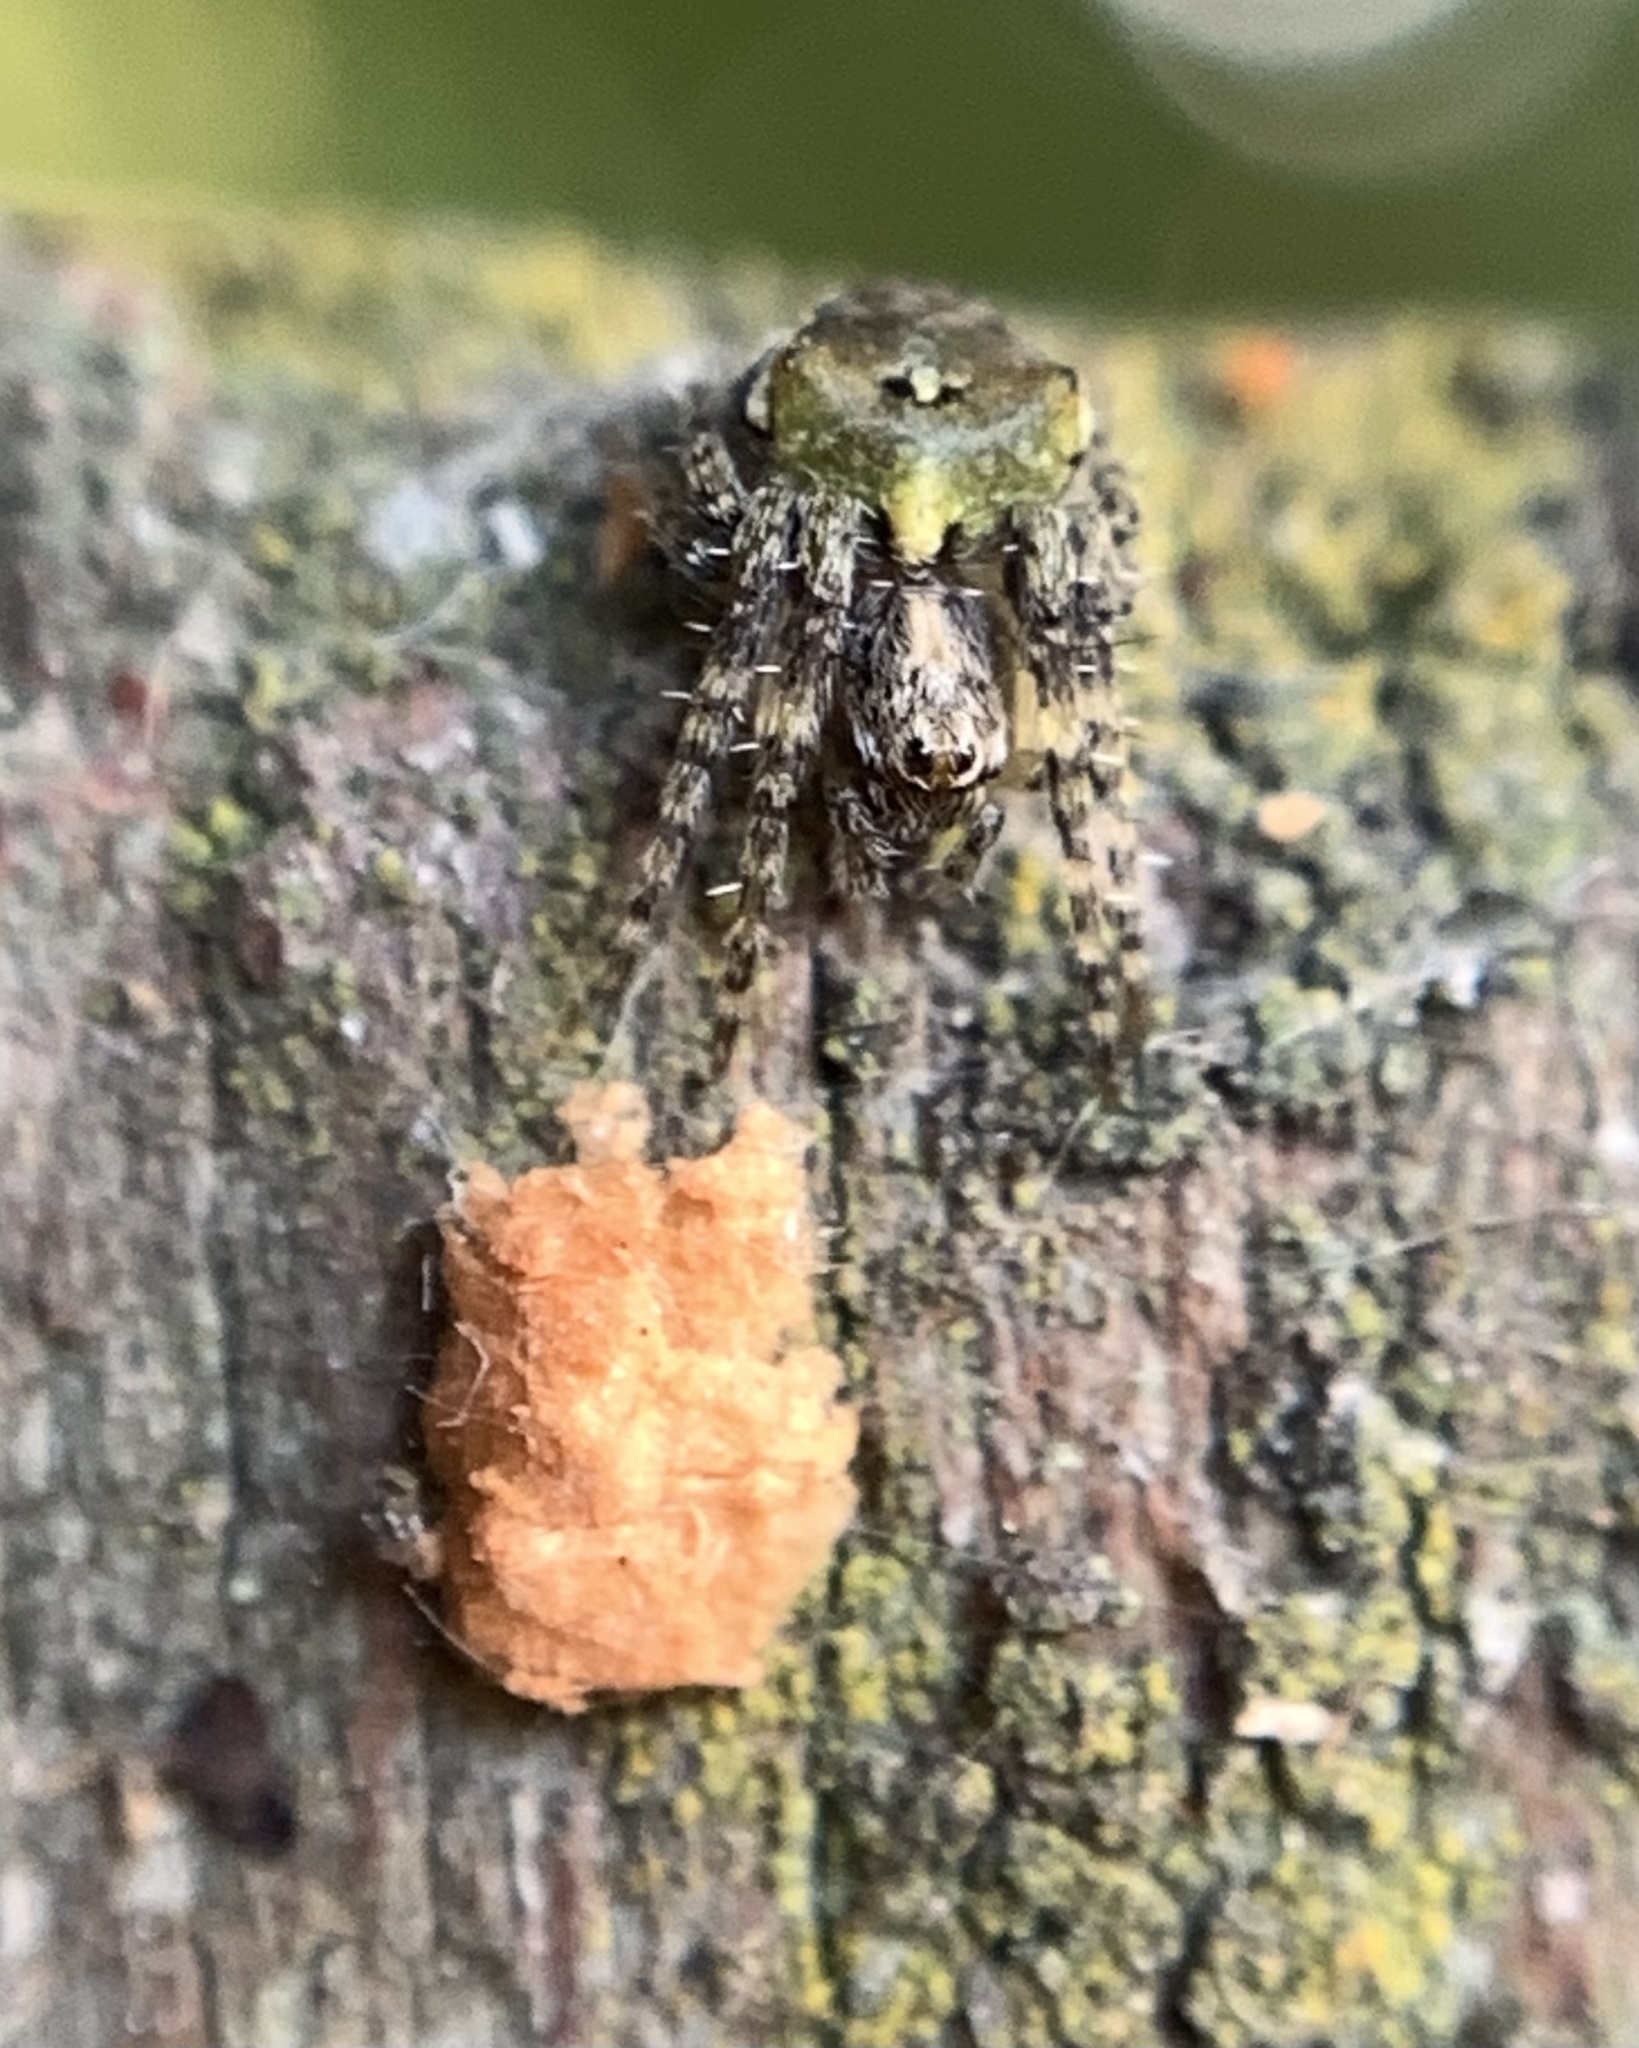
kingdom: Animalia
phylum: Arthropoda
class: Arachnida
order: Araneae
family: Araneidae
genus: Gibbaranea
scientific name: Gibbaranea gibbosa
